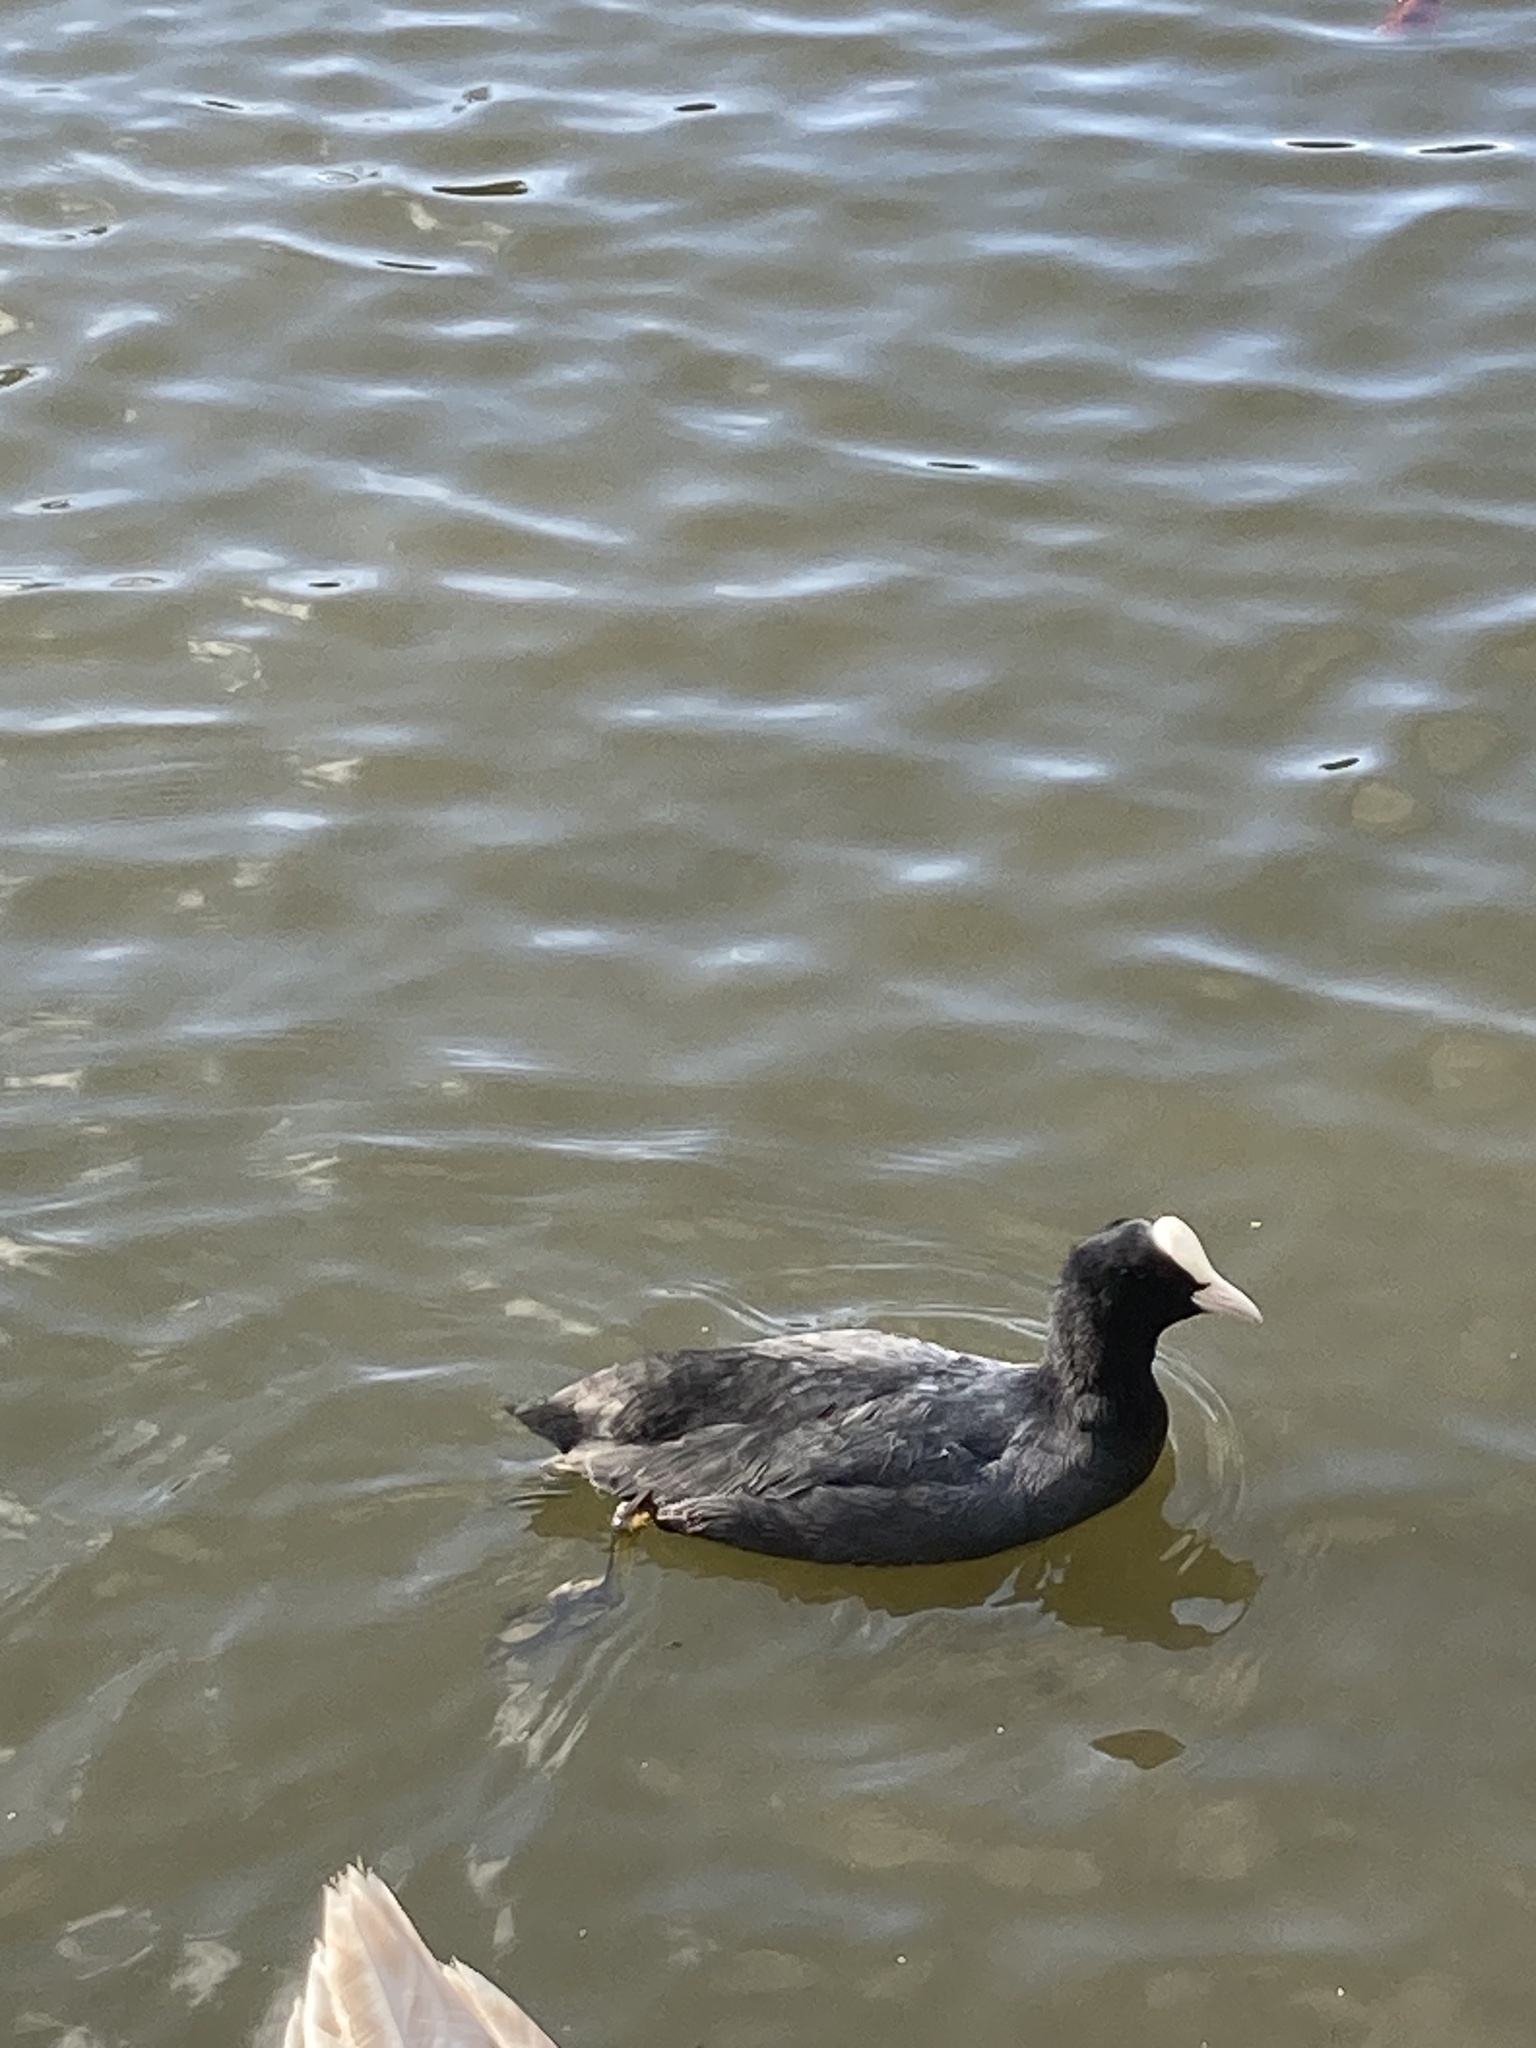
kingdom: Animalia
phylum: Chordata
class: Aves
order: Gruiformes
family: Rallidae
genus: Fulica
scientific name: Fulica atra
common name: Eurasian coot
